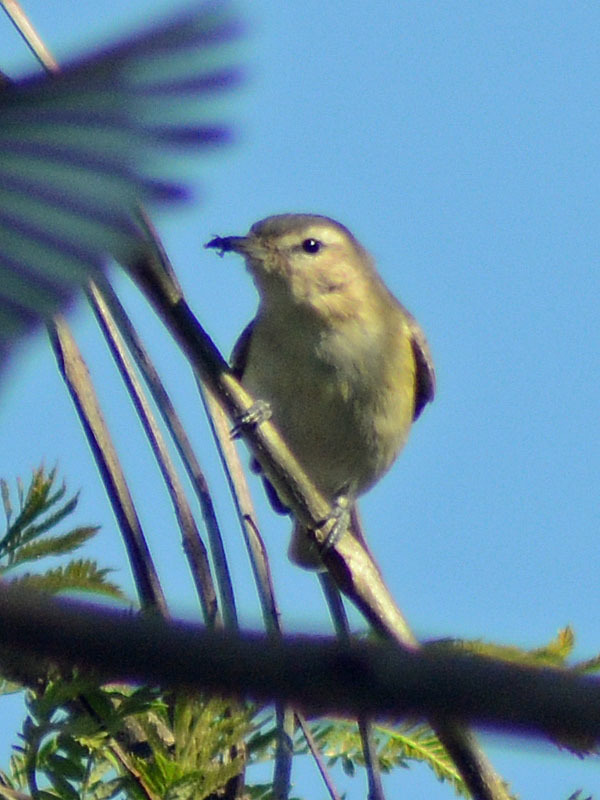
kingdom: Animalia
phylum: Chordata
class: Aves
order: Passeriformes
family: Vireonidae
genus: Vireo
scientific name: Vireo gilvus
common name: Warbling vireo
